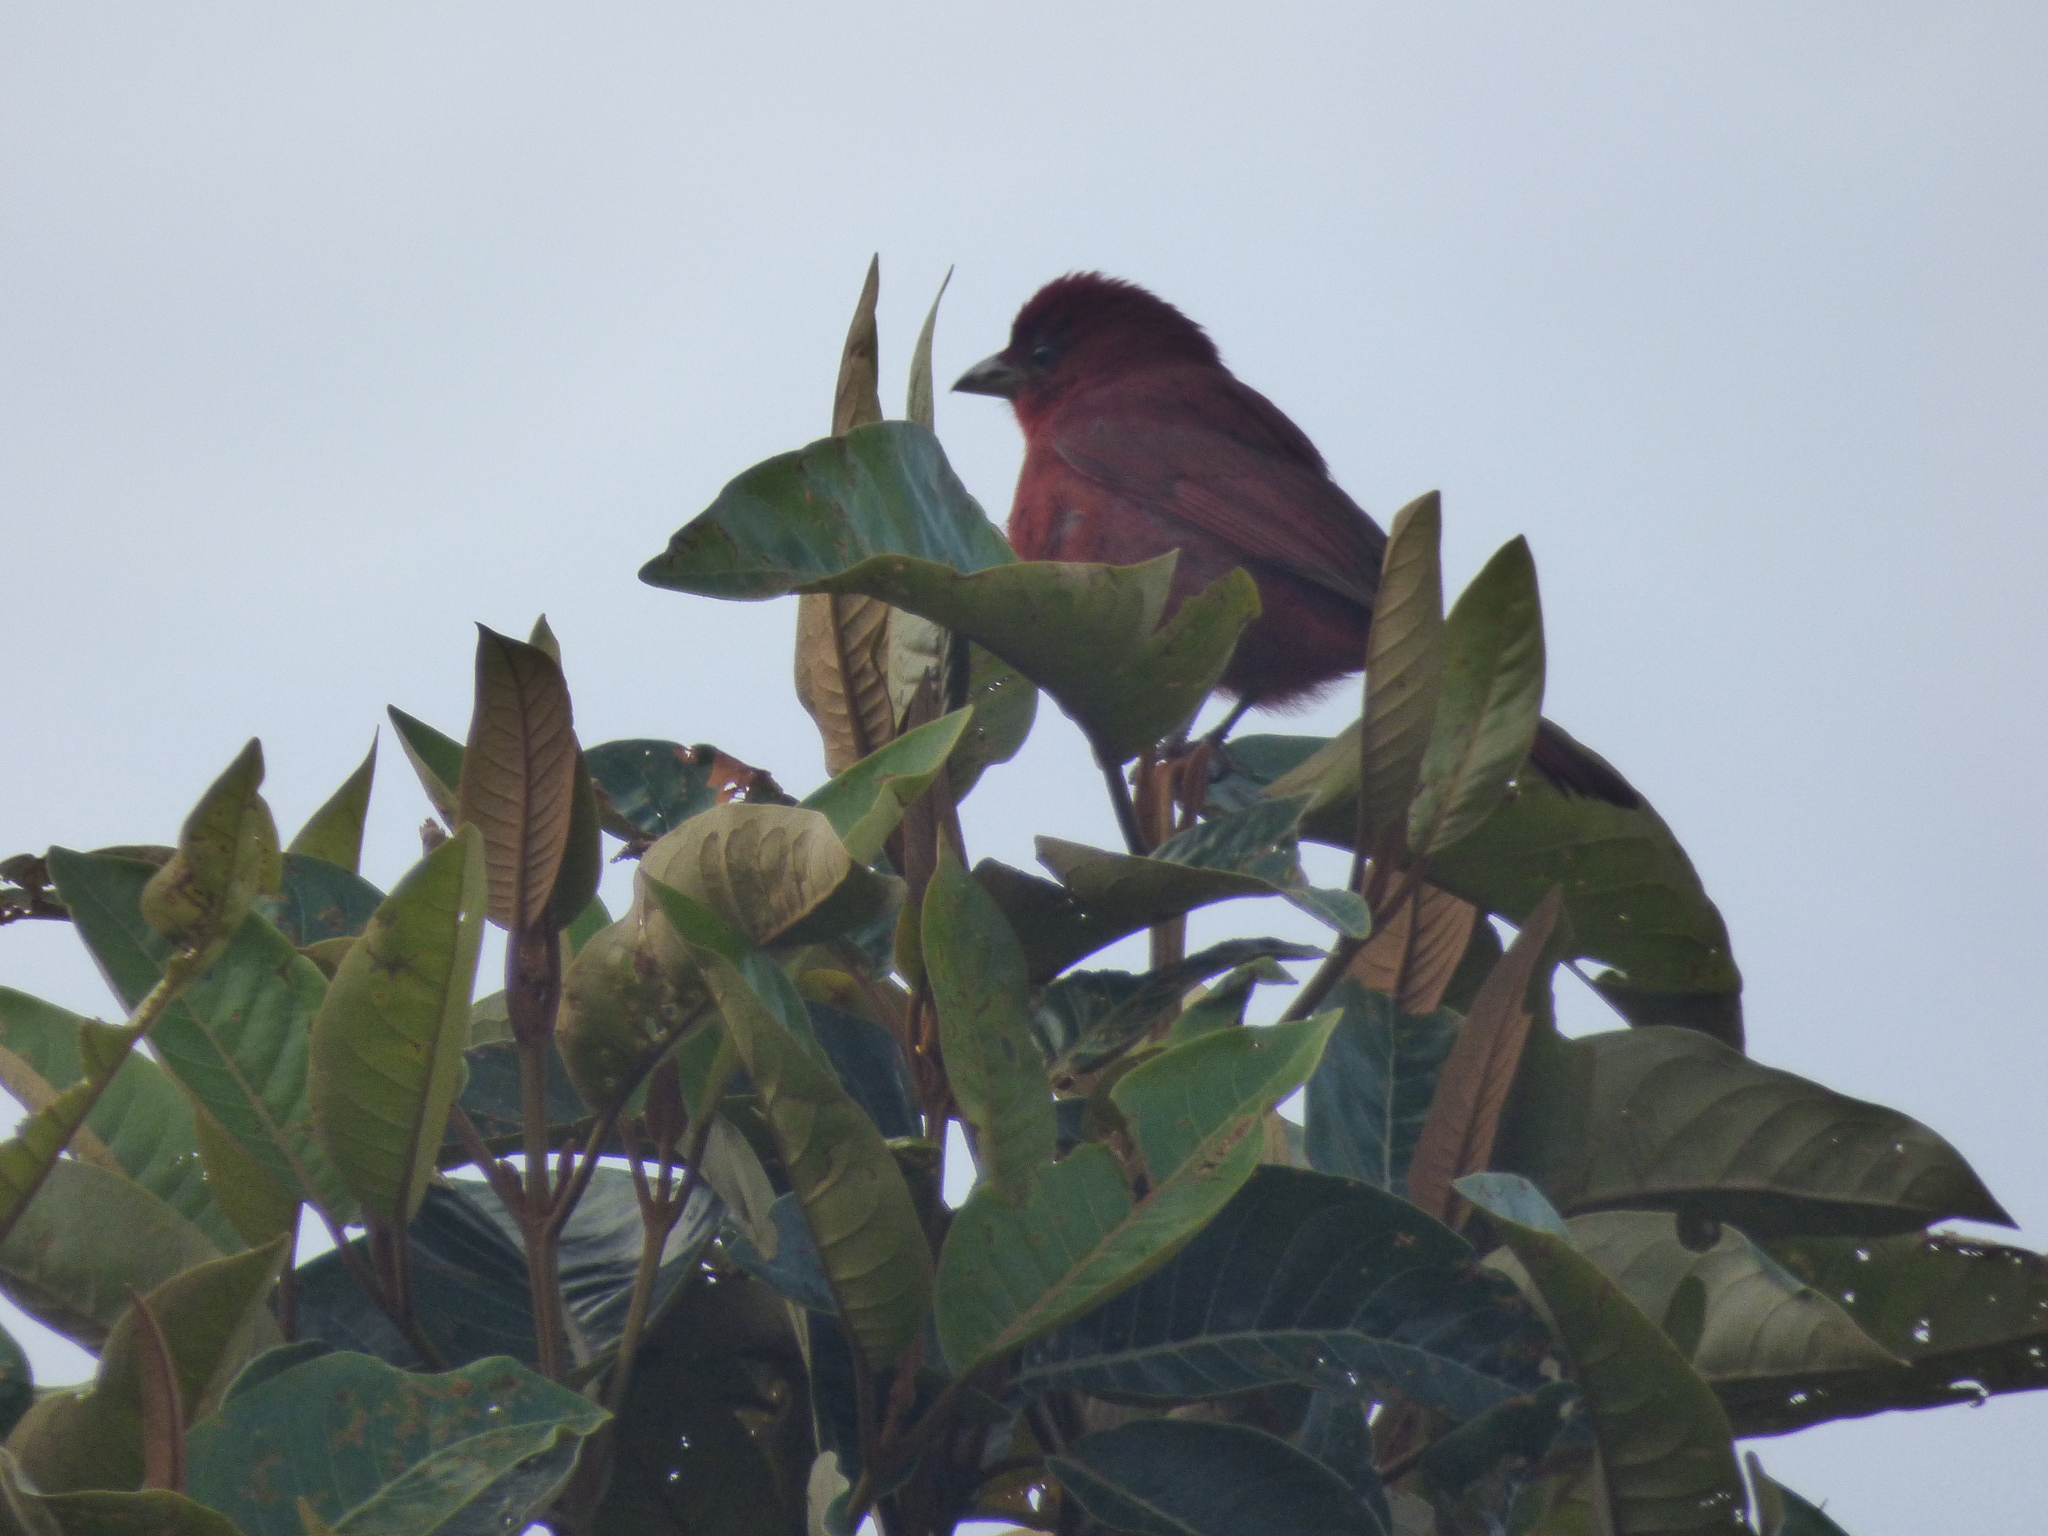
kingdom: Animalia
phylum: Chordata
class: Aves
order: Passeriformes
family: Cardinalidae
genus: Piranga
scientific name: Piranga flava
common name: Red tanager
